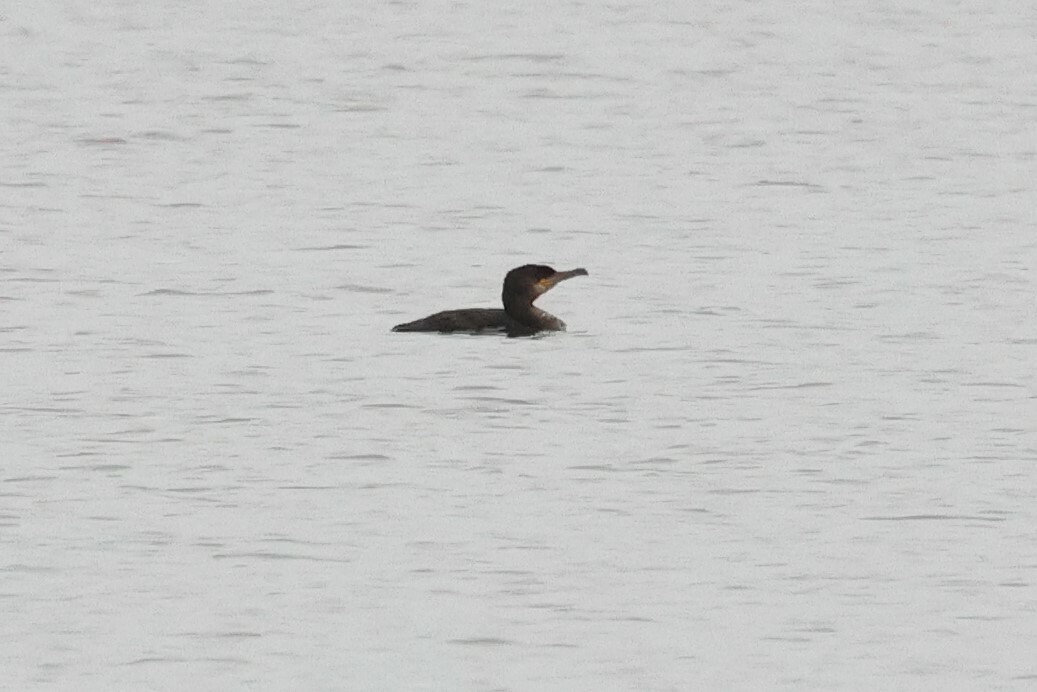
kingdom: Animalia
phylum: Chordata
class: Aves
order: Suliformes
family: Phalacrocoracidae
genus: Phalacrocorax
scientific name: Phalacrocorax carbo
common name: Great cormorant
